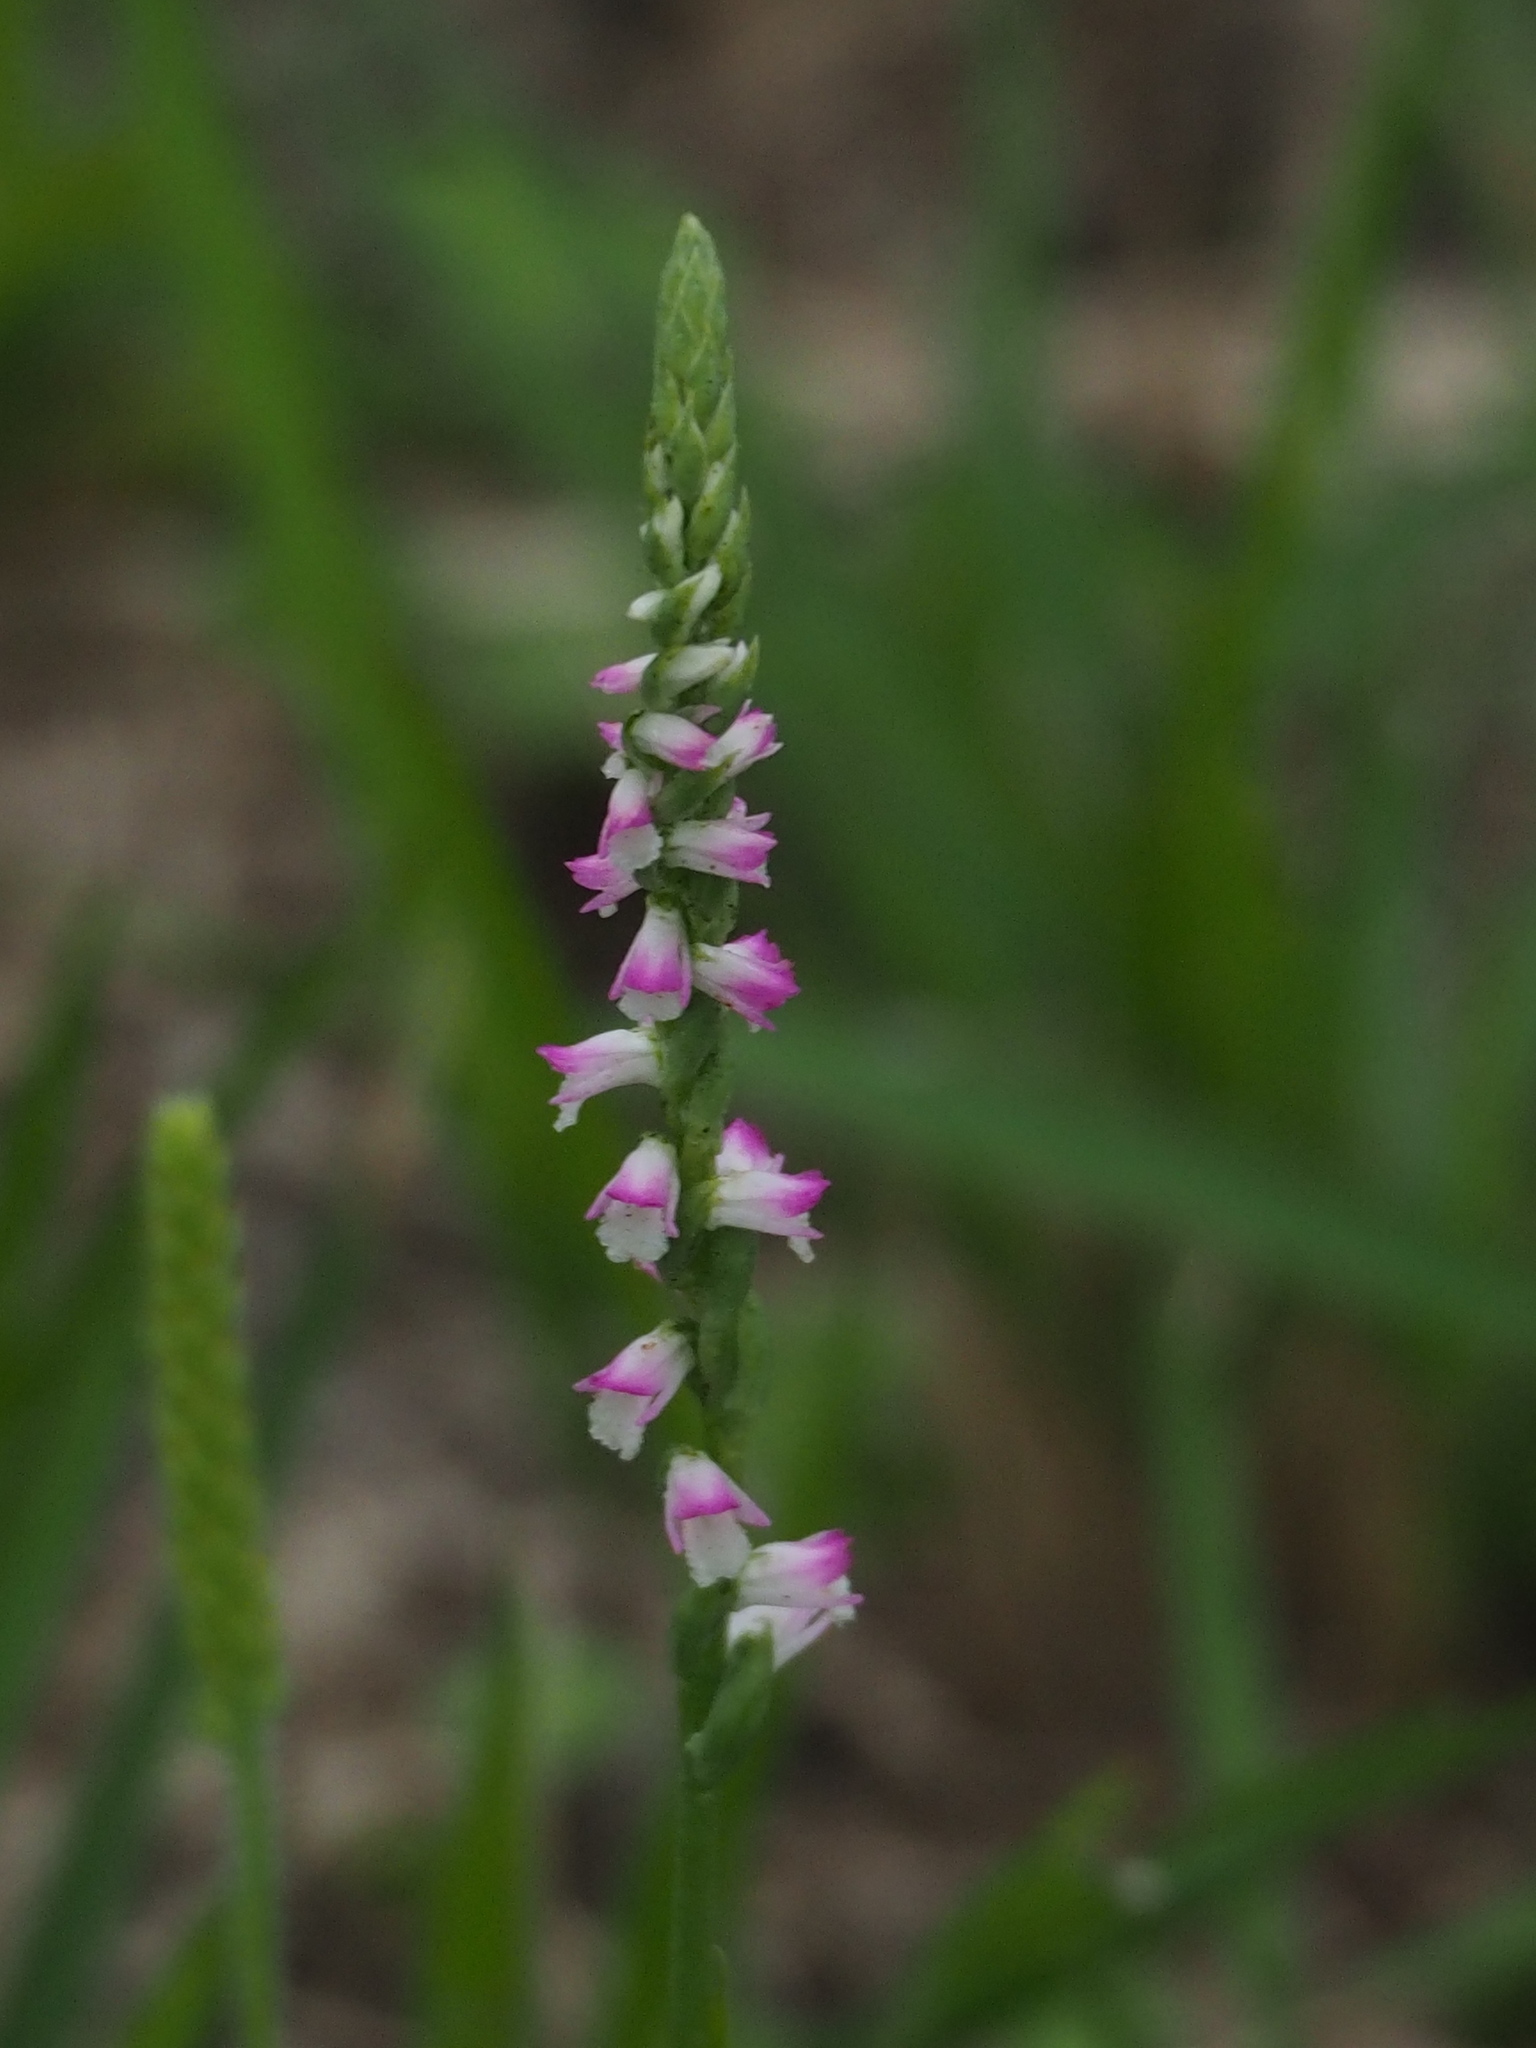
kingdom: Plantae
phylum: Tracheophyta
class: Liliopsida
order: Asparagales
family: Orchidaceae
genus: Spiranthes
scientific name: Spiranthes sinensis
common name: Chinese spiranthes
